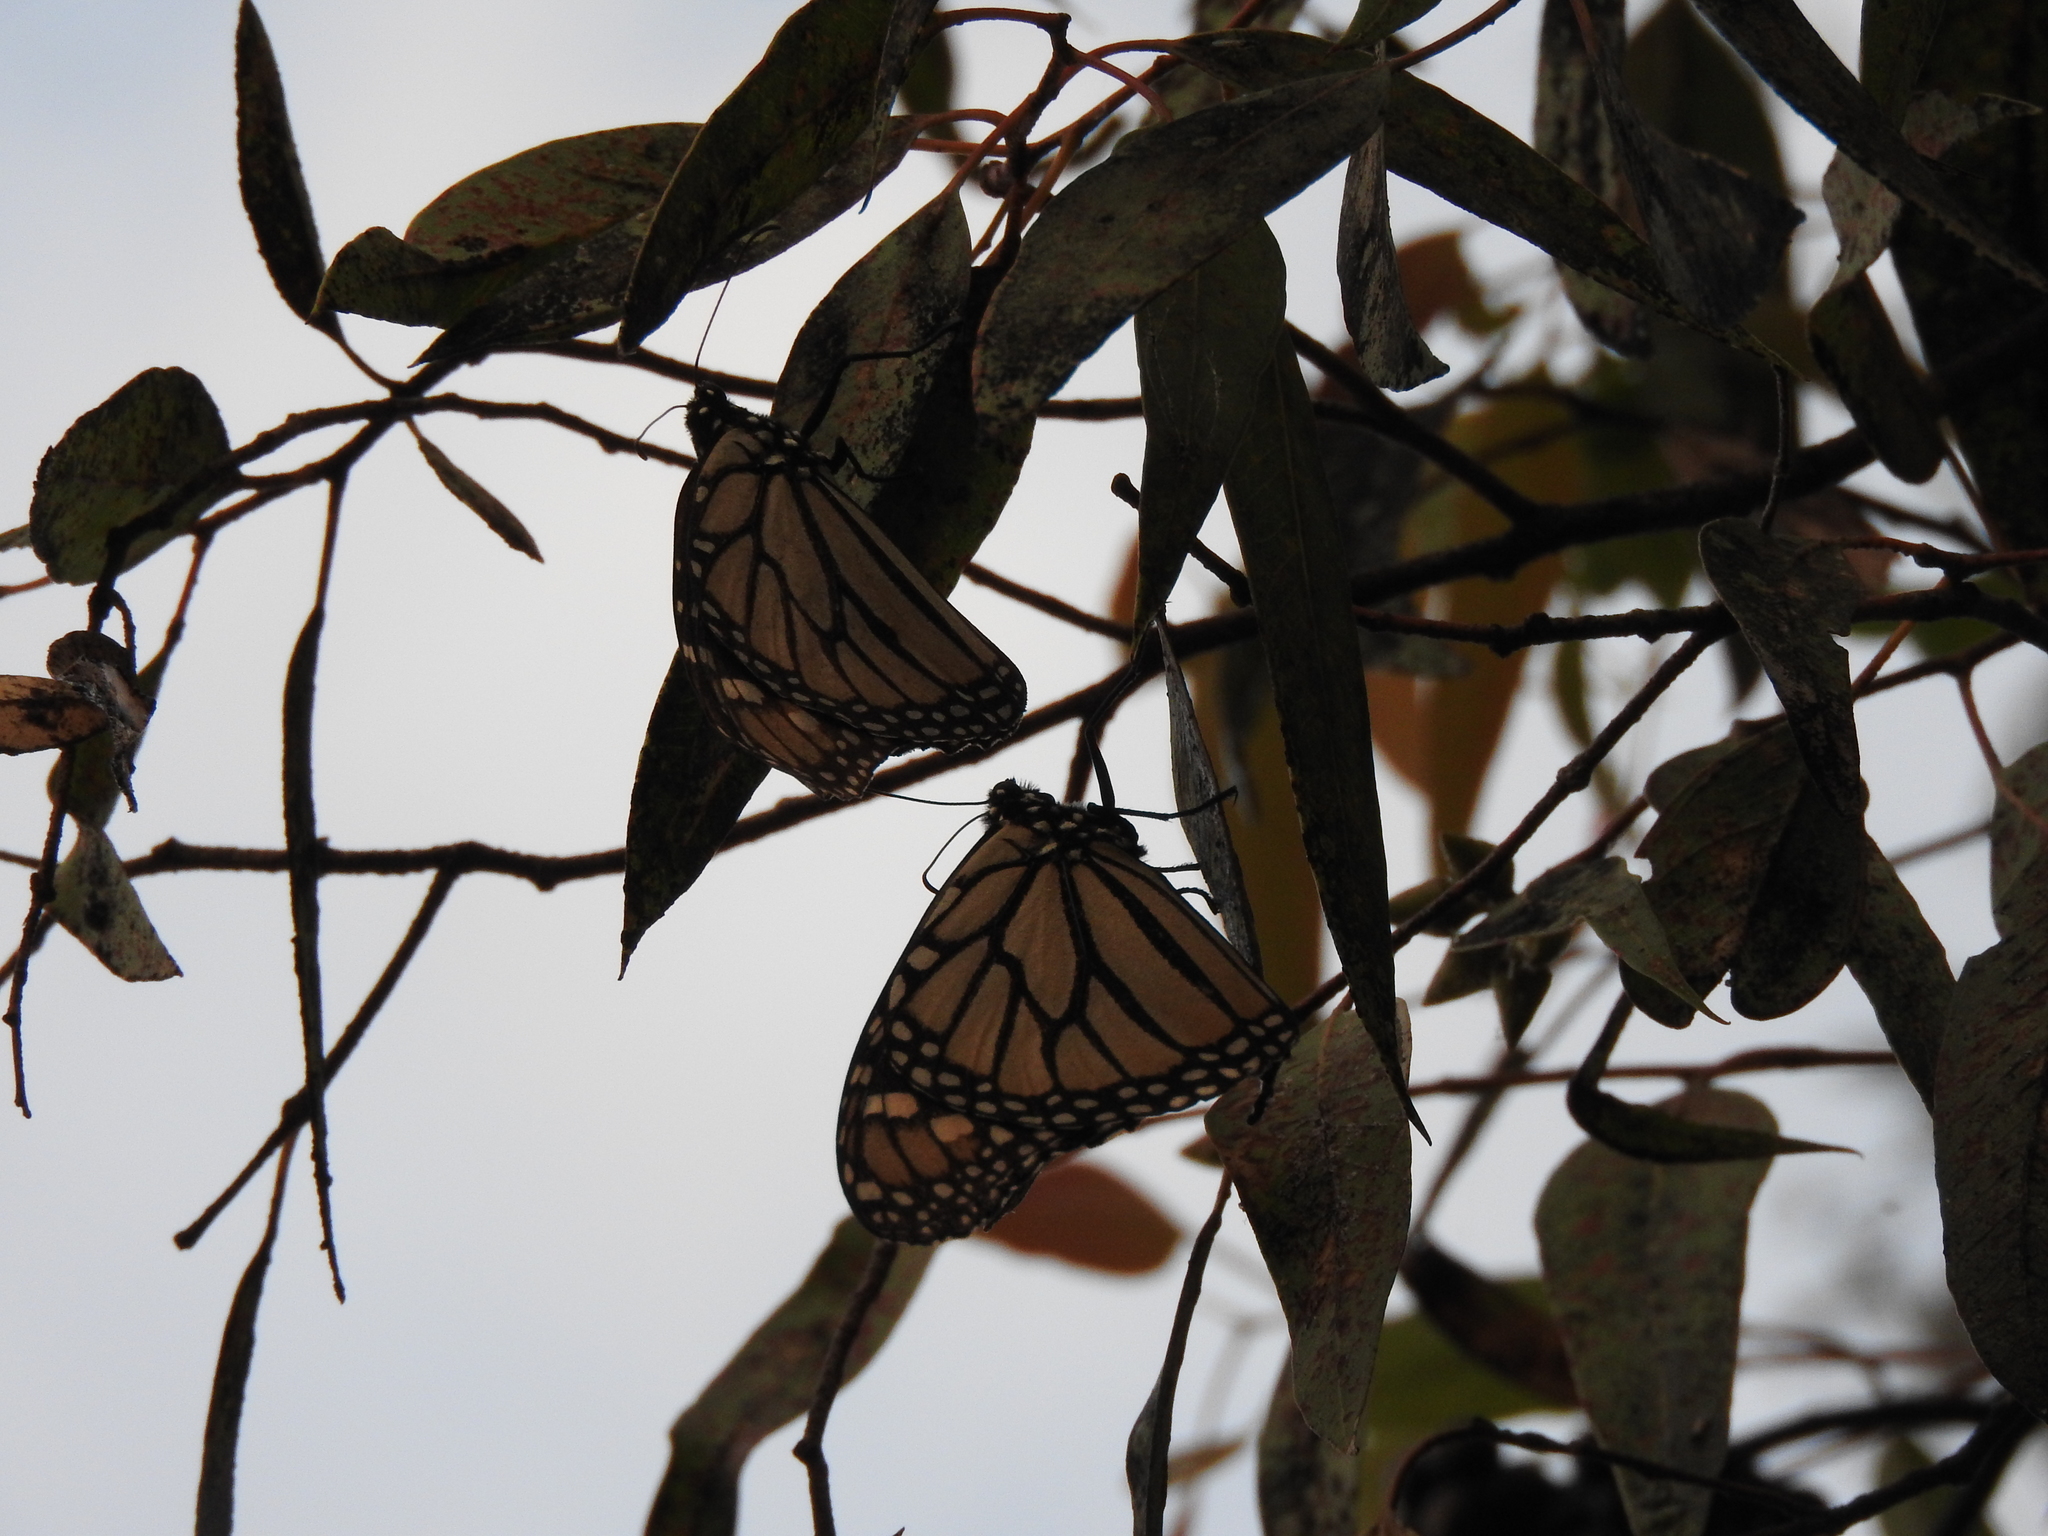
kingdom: Animalia
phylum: Arthropoda
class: Insecta
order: Lepidoptera
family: Nymphalidae
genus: Danaus
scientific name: Danaus plexippus
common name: Monarch
